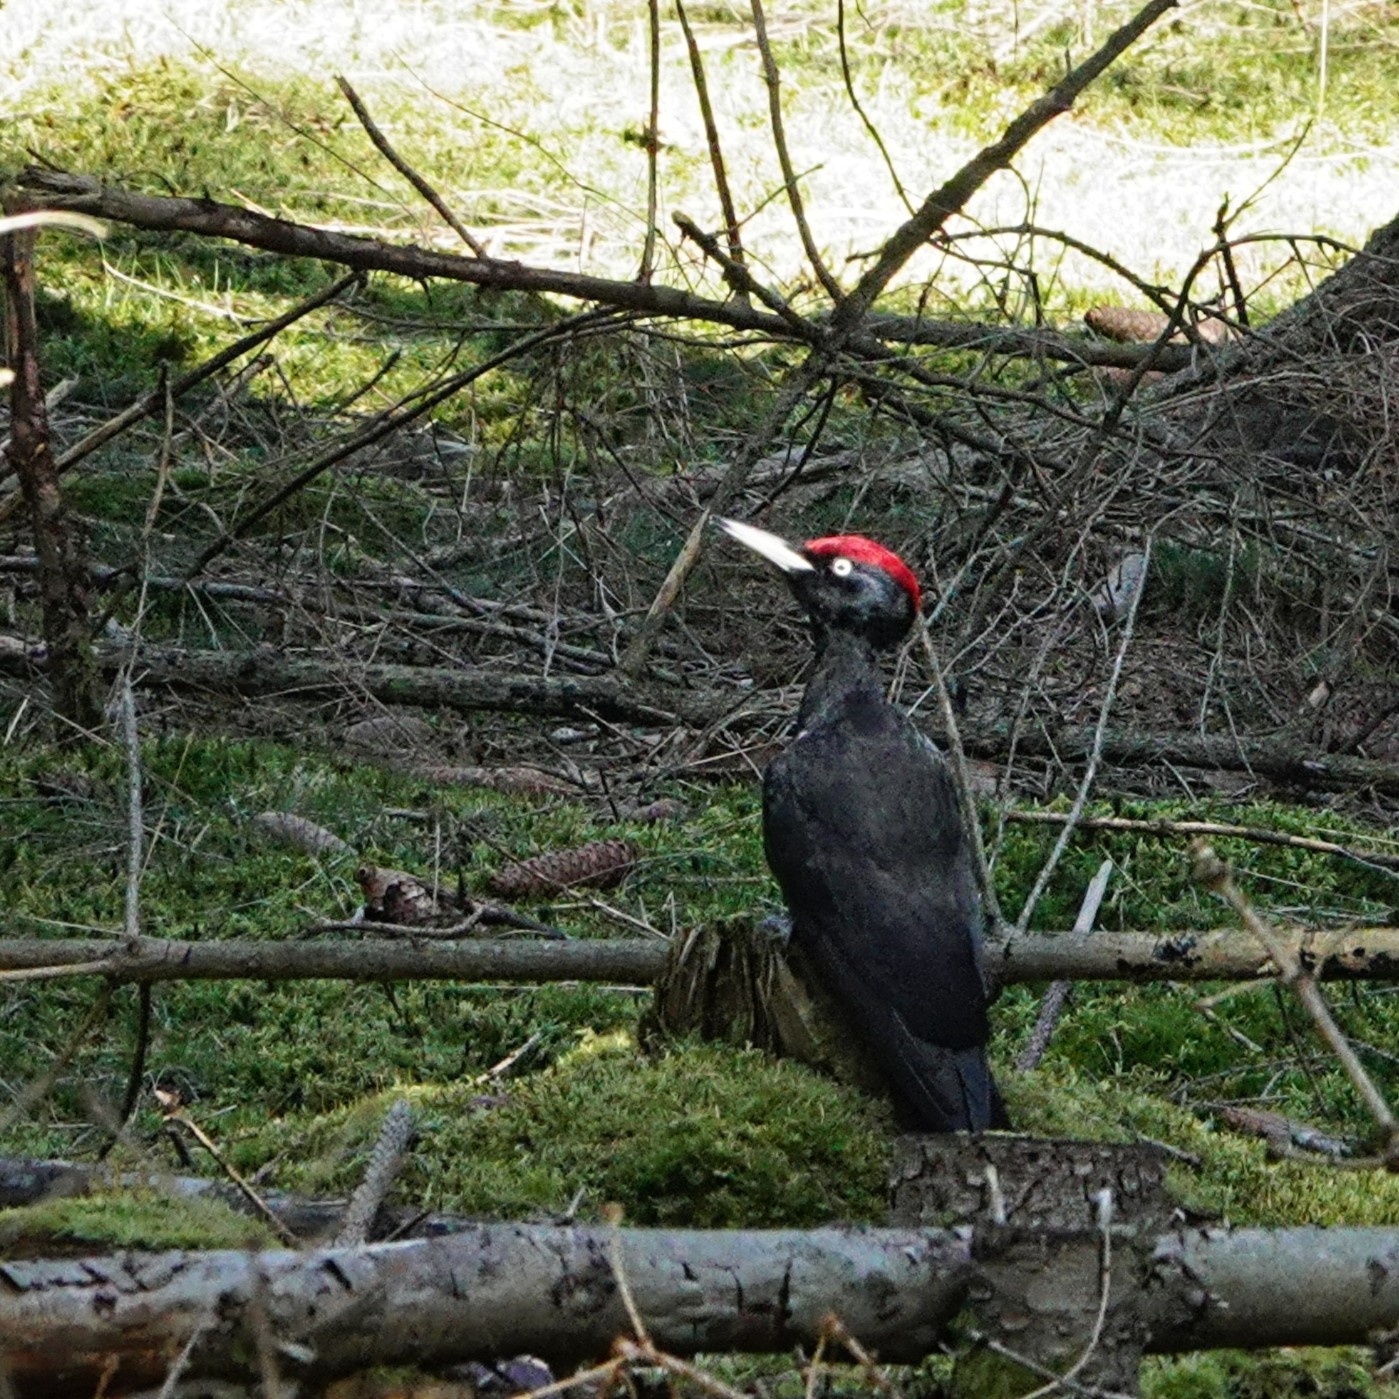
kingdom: Animalia
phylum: Chordata
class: Aves
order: Piciformes
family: Picidae
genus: Dryocopus
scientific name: Dryocopus martius
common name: Black woodpecker
